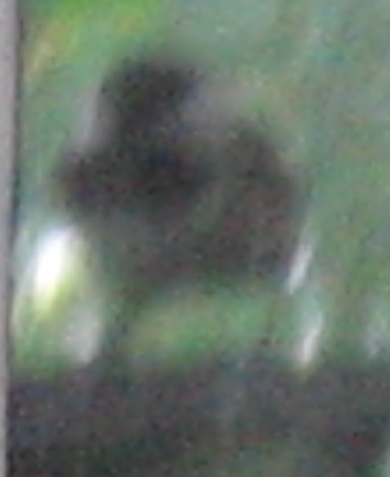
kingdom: Animalia
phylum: Chordata
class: Aves
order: Passeriformes
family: Paridae
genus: Poecile
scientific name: Poecile carolinensis
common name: Carolina chickadee
